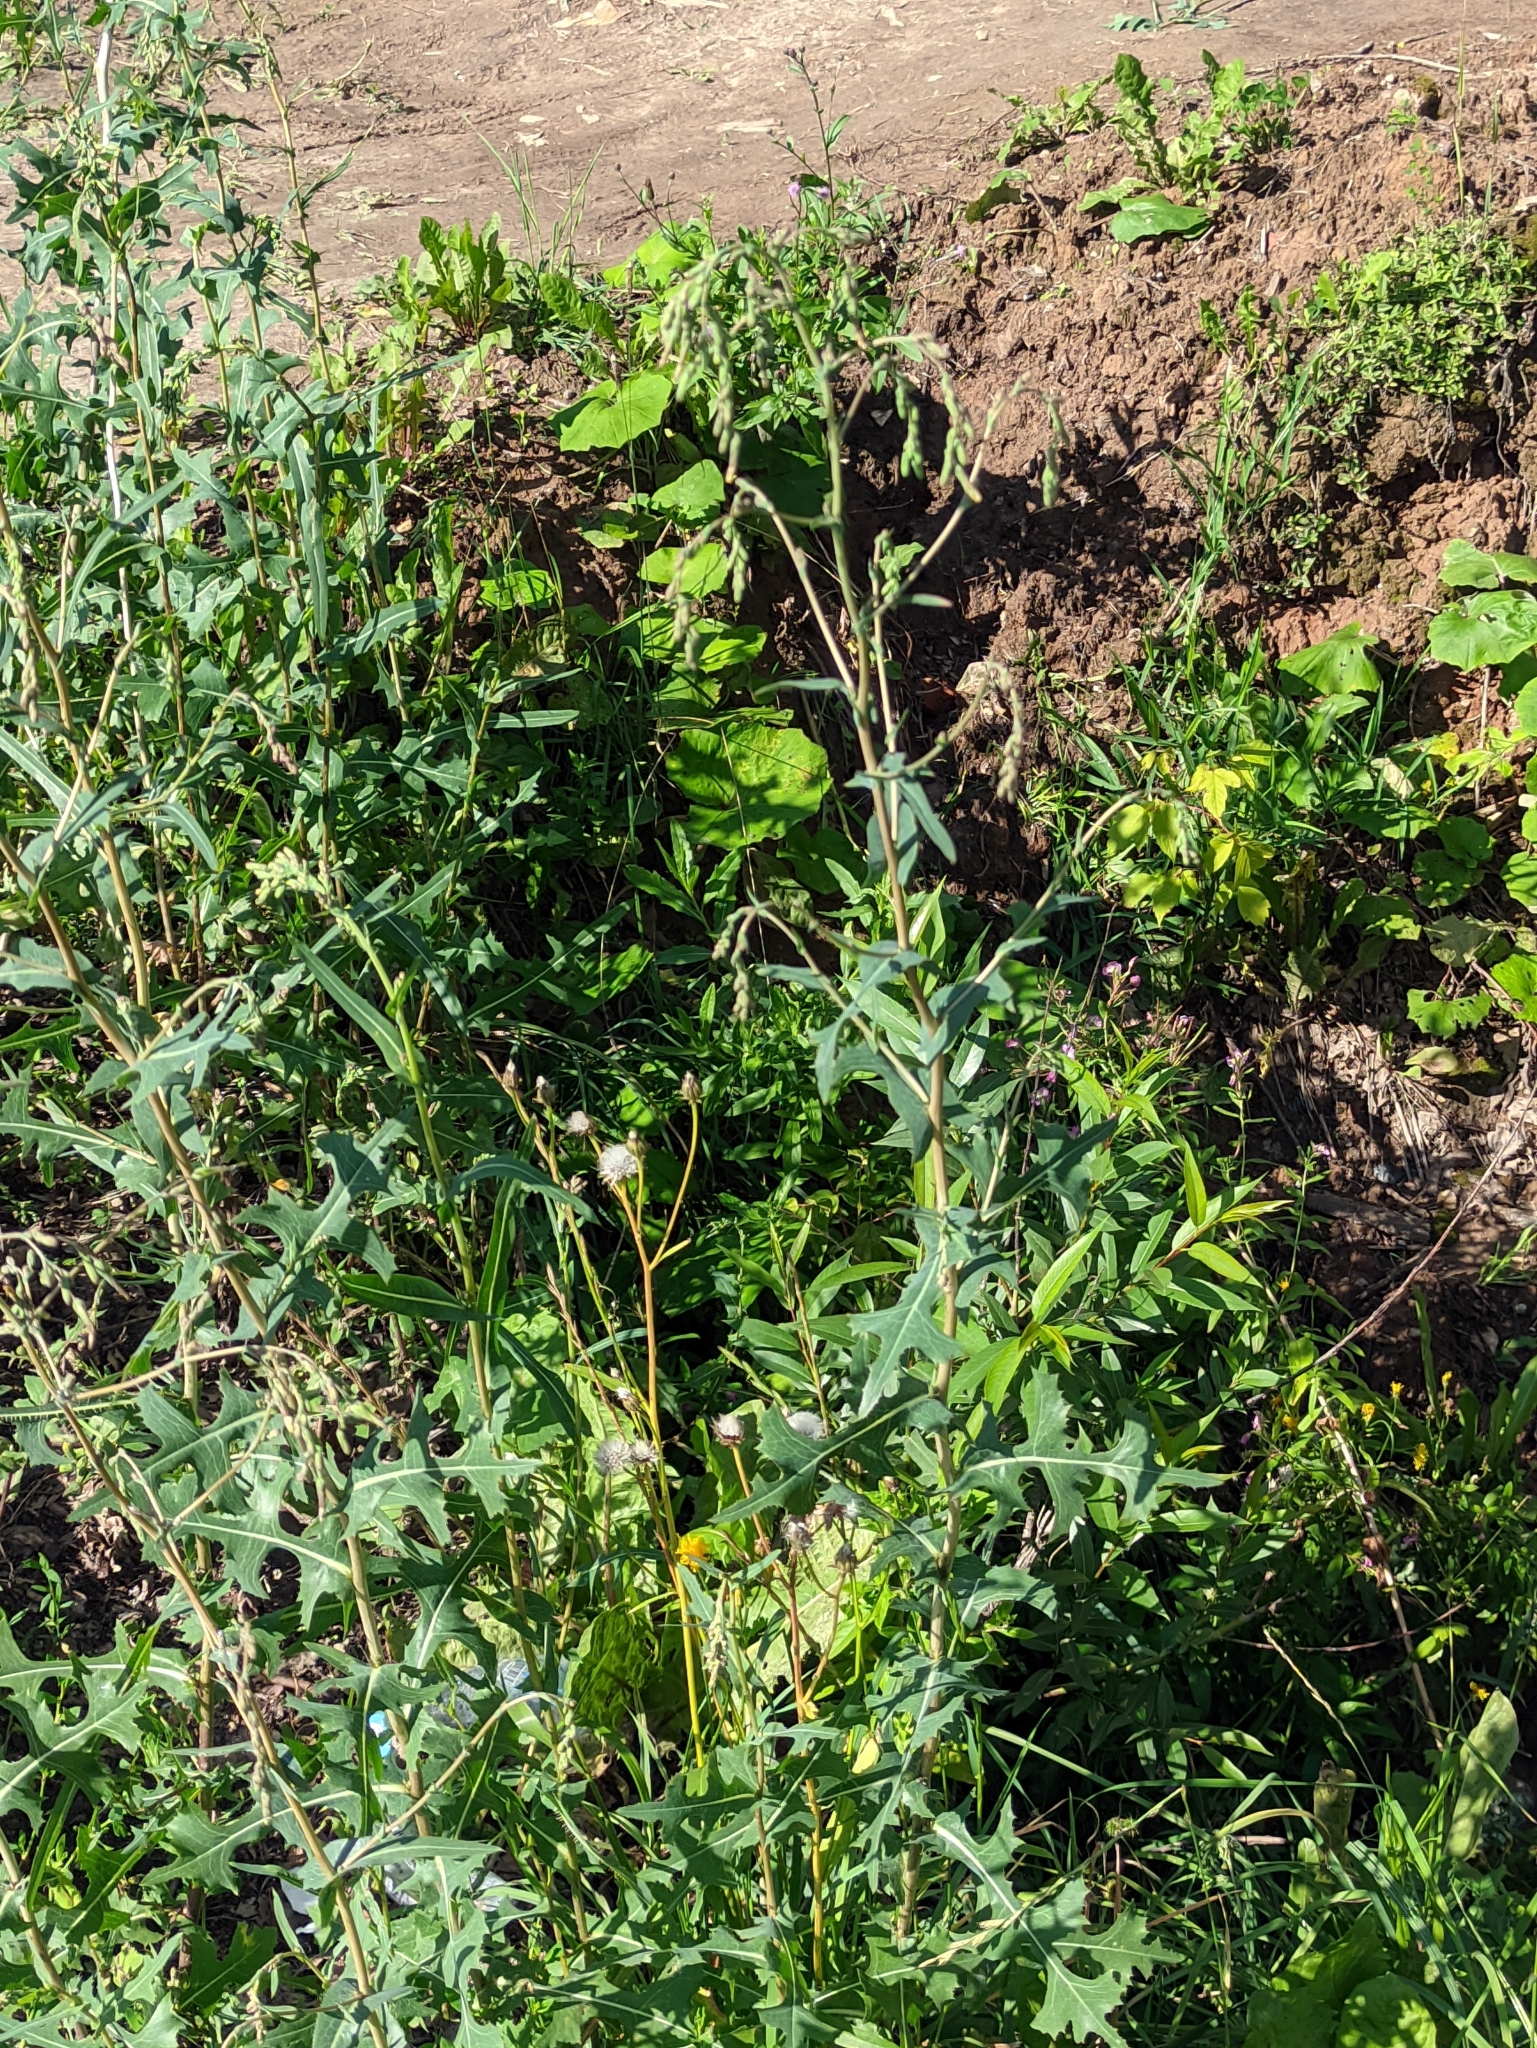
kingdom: Plantae
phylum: Tracheophyta
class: Magnoliopsida
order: Asterales
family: Asteraceae
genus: Lactuca
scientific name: Lactuca serriola
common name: Prickly lettuce
